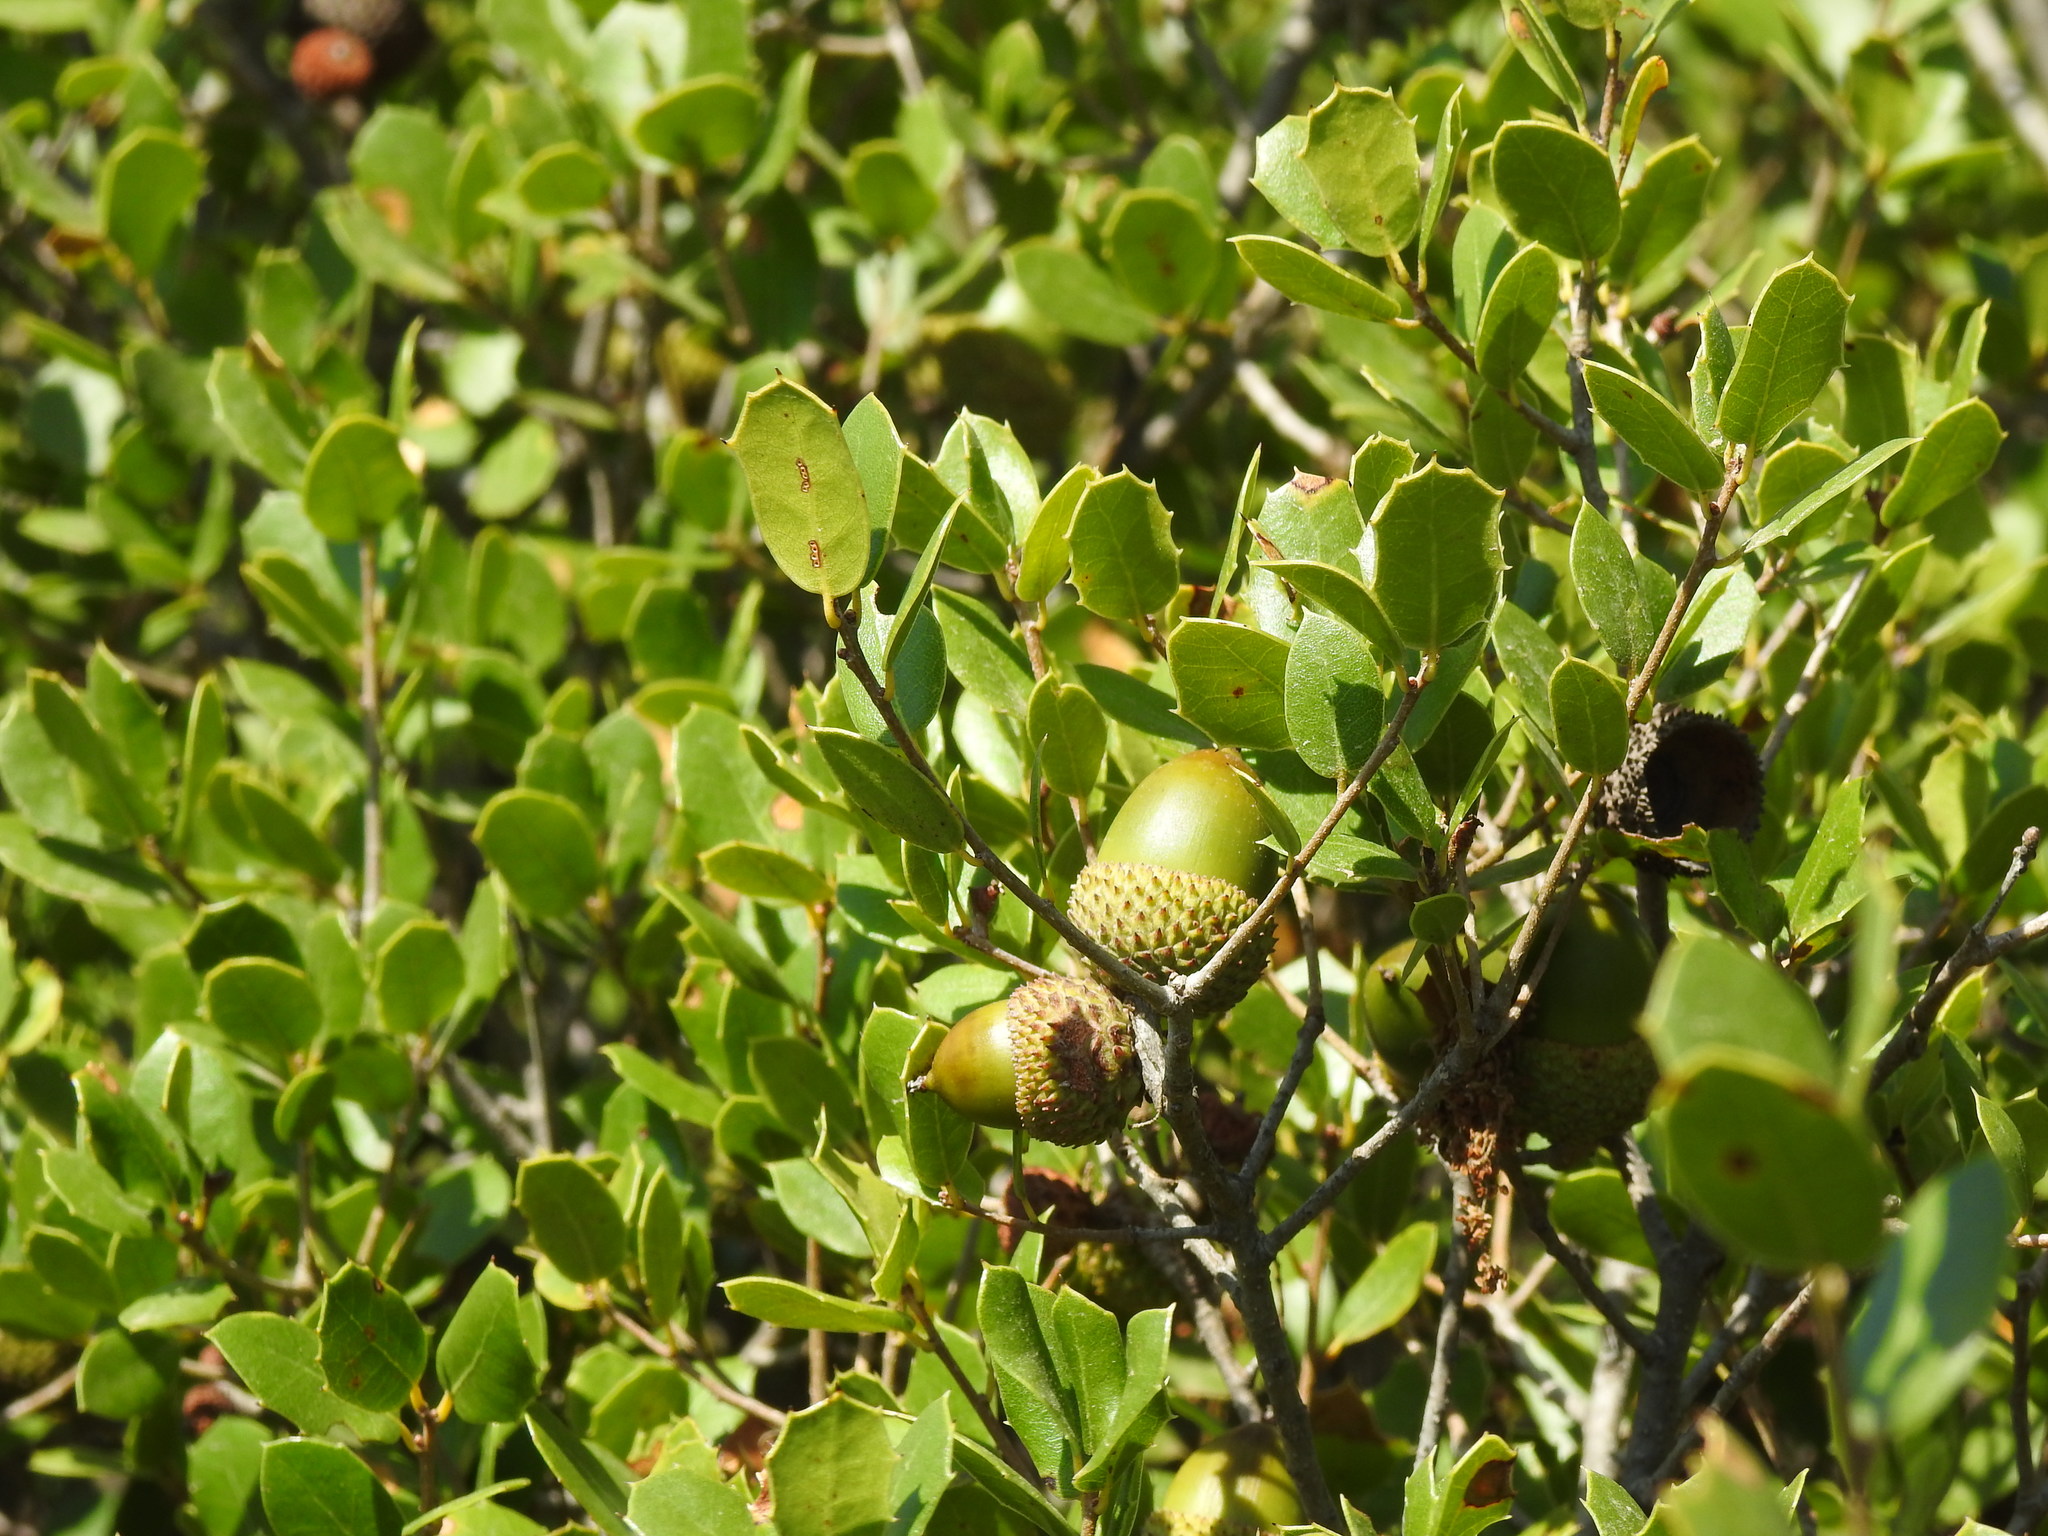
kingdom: Plantae
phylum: Tracheophyta
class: Magnoliopsida
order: Fagales
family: Fagaceae
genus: Quercus
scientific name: Quercus coccifera
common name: Kermes oak
